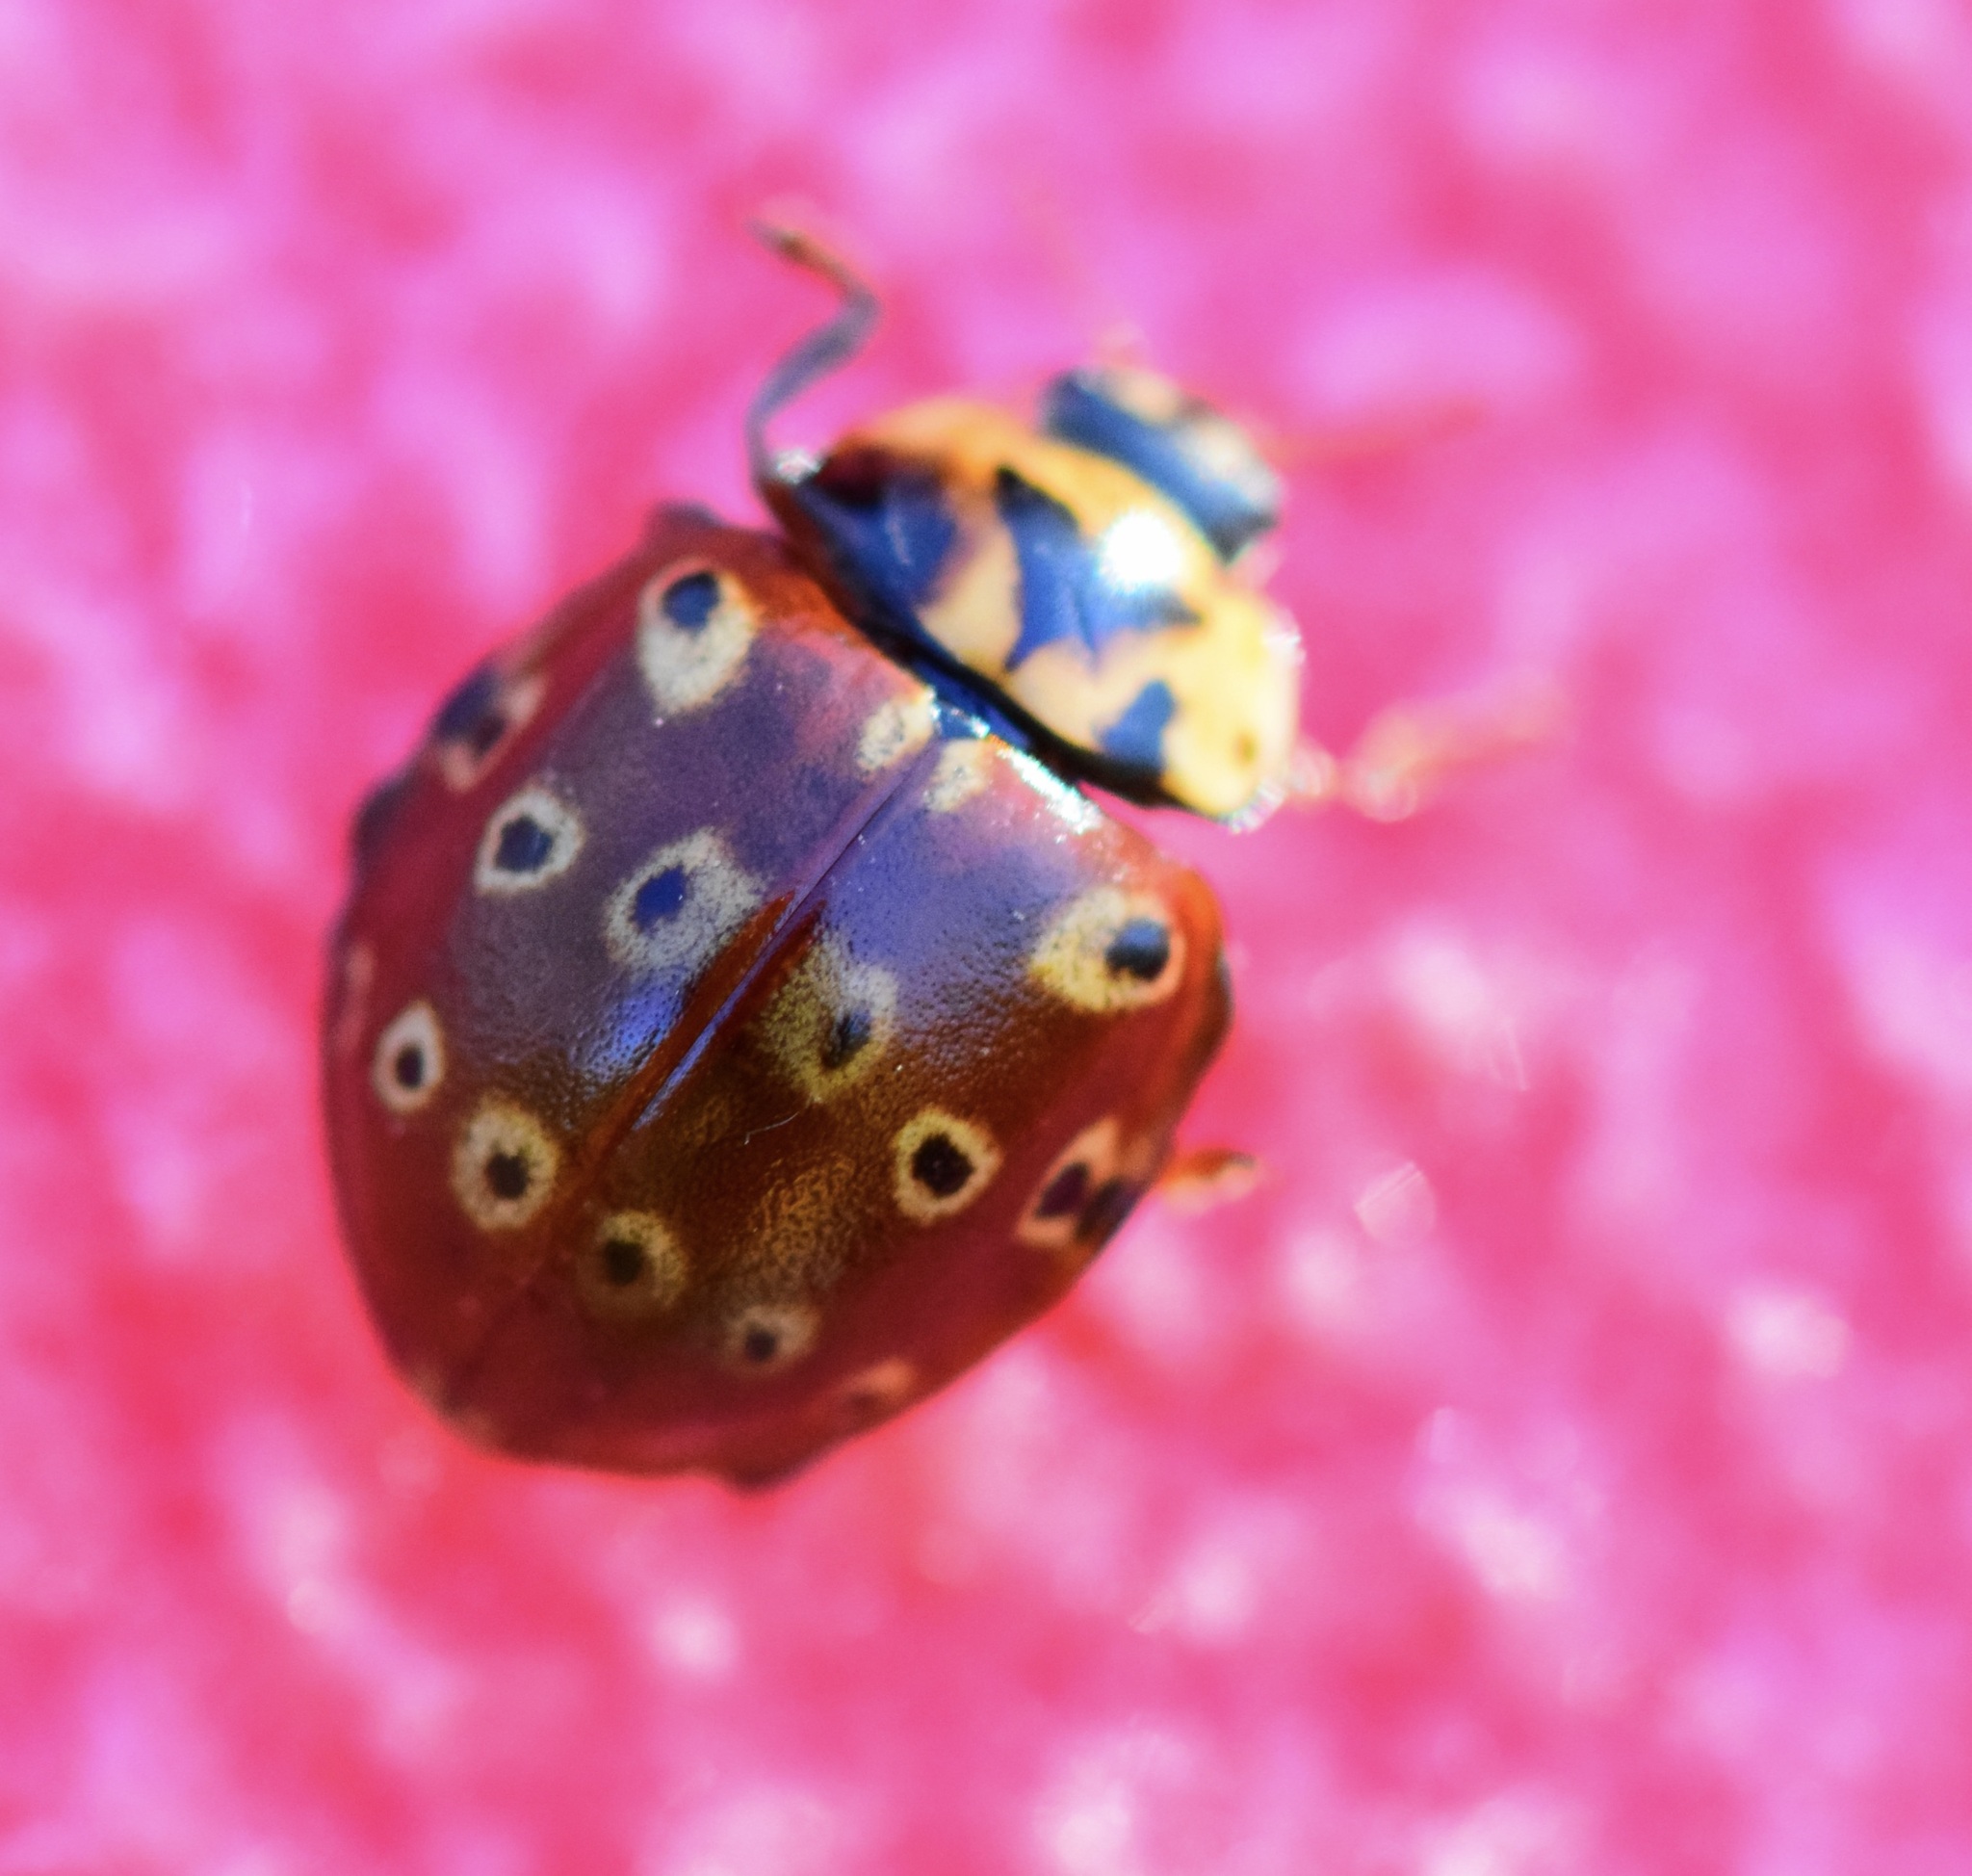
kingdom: Animalia
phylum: Arthropoda
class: Insecta
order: Coleoptera
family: Coccinellidae
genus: Anatis
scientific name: Anatis mali
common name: Eye-spotted lady beetle
